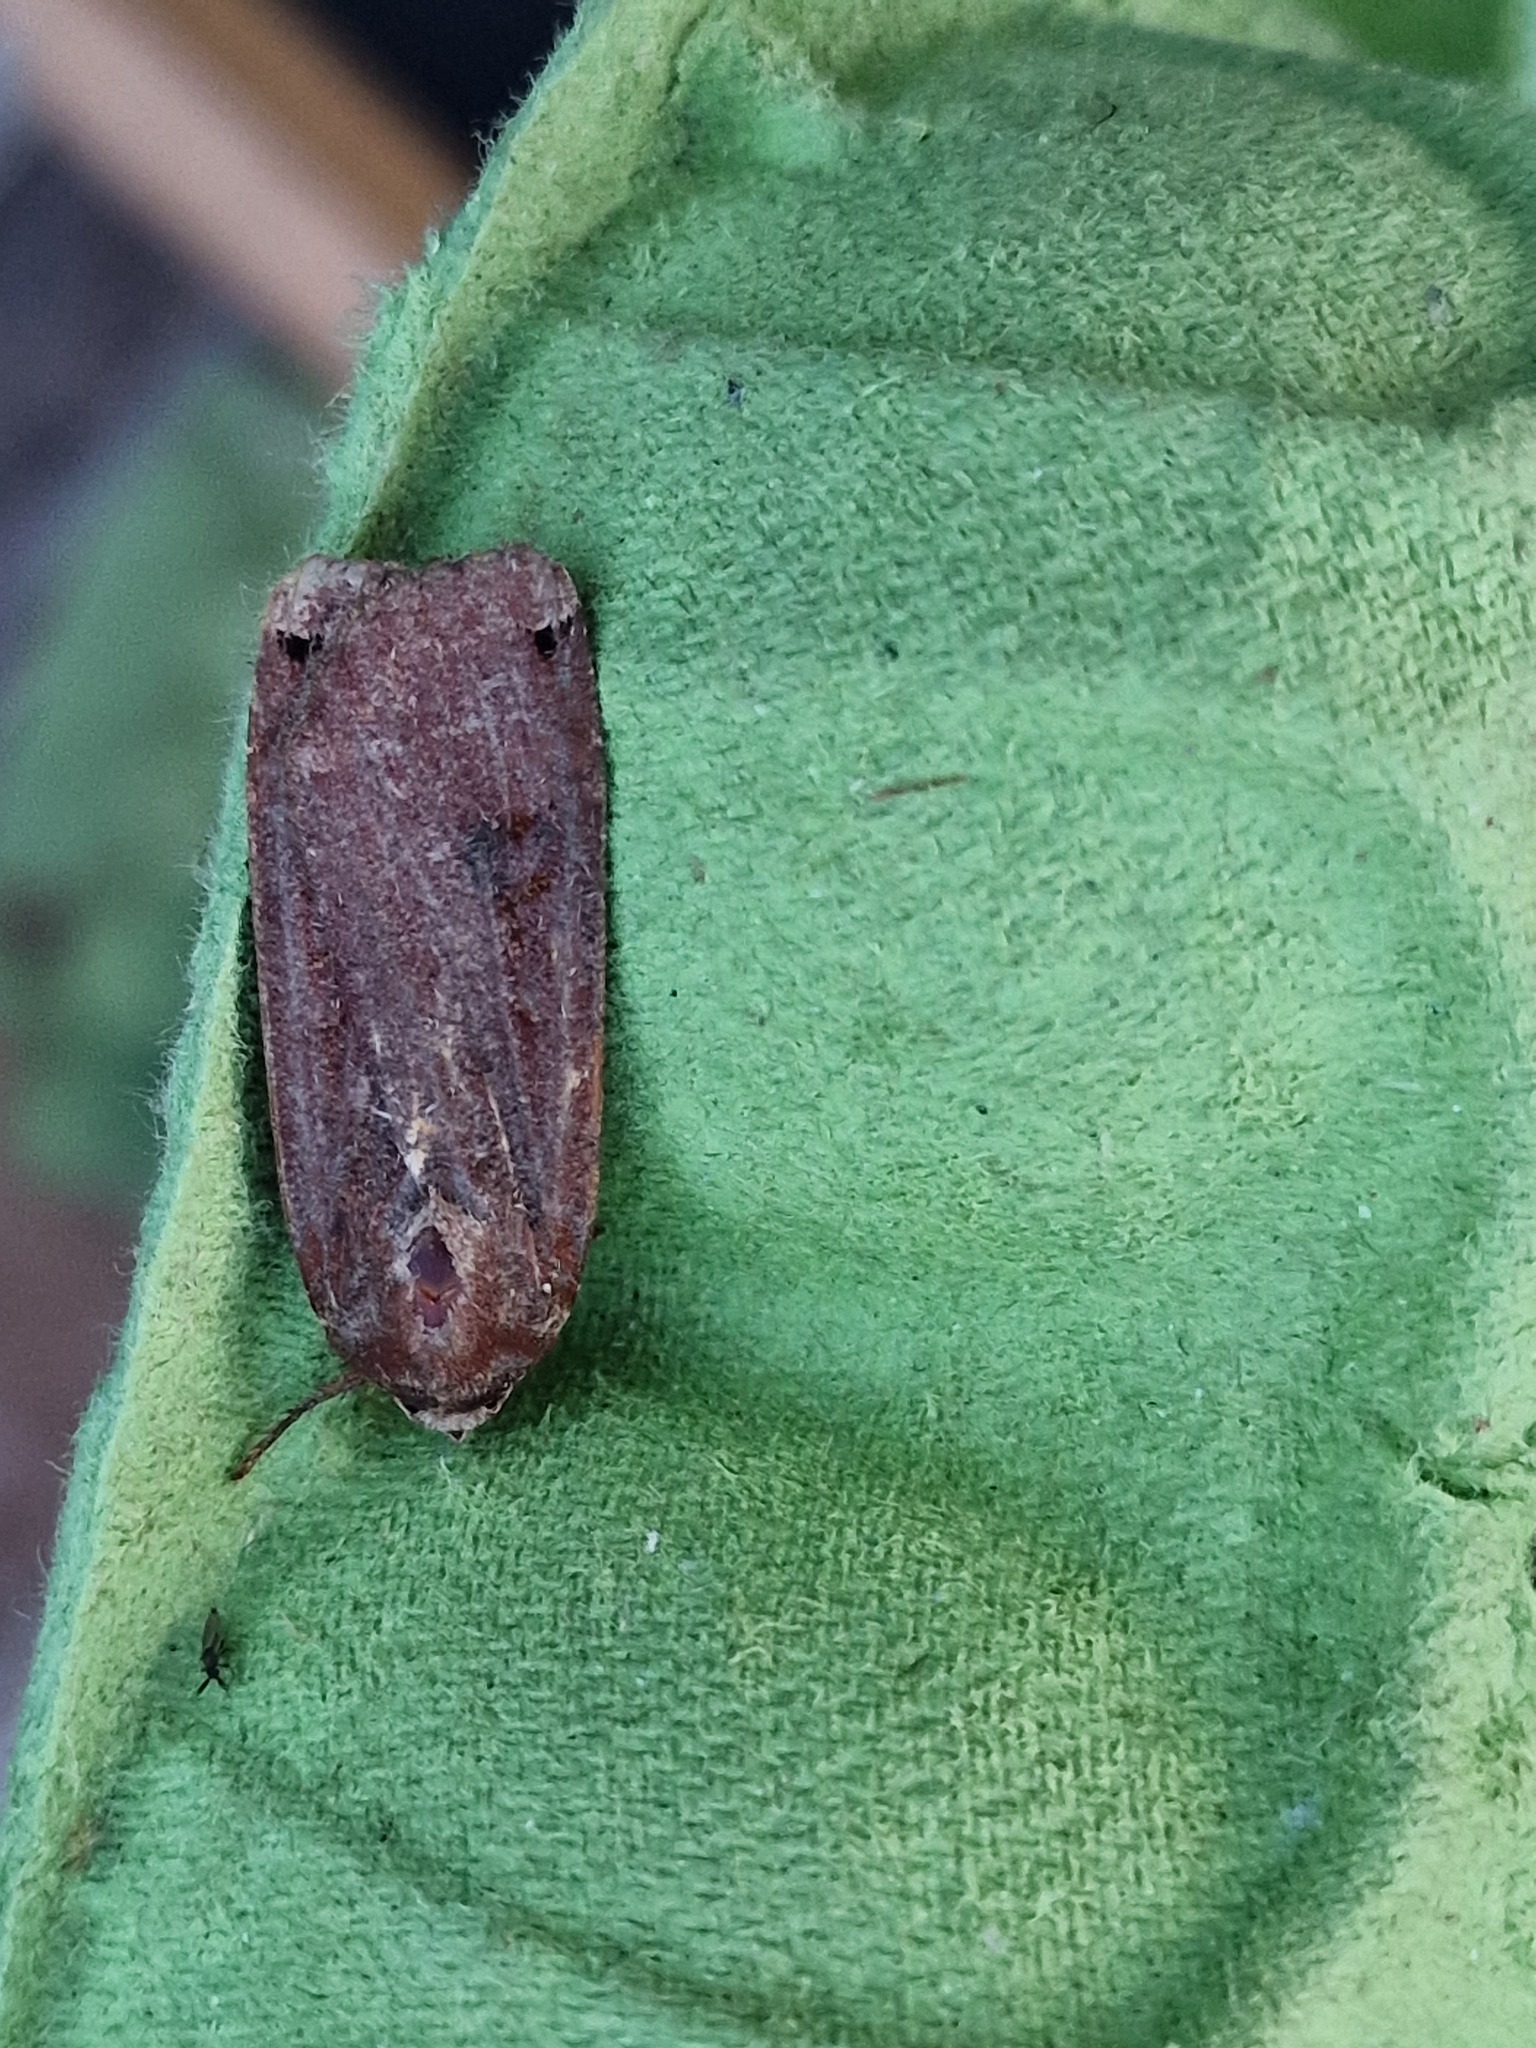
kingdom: Animalia
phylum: Arthropoda
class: Insecta
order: Lepidoptera
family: Noctuidae
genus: Noctua
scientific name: Noctua pronuba
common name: Large yellow underwing
